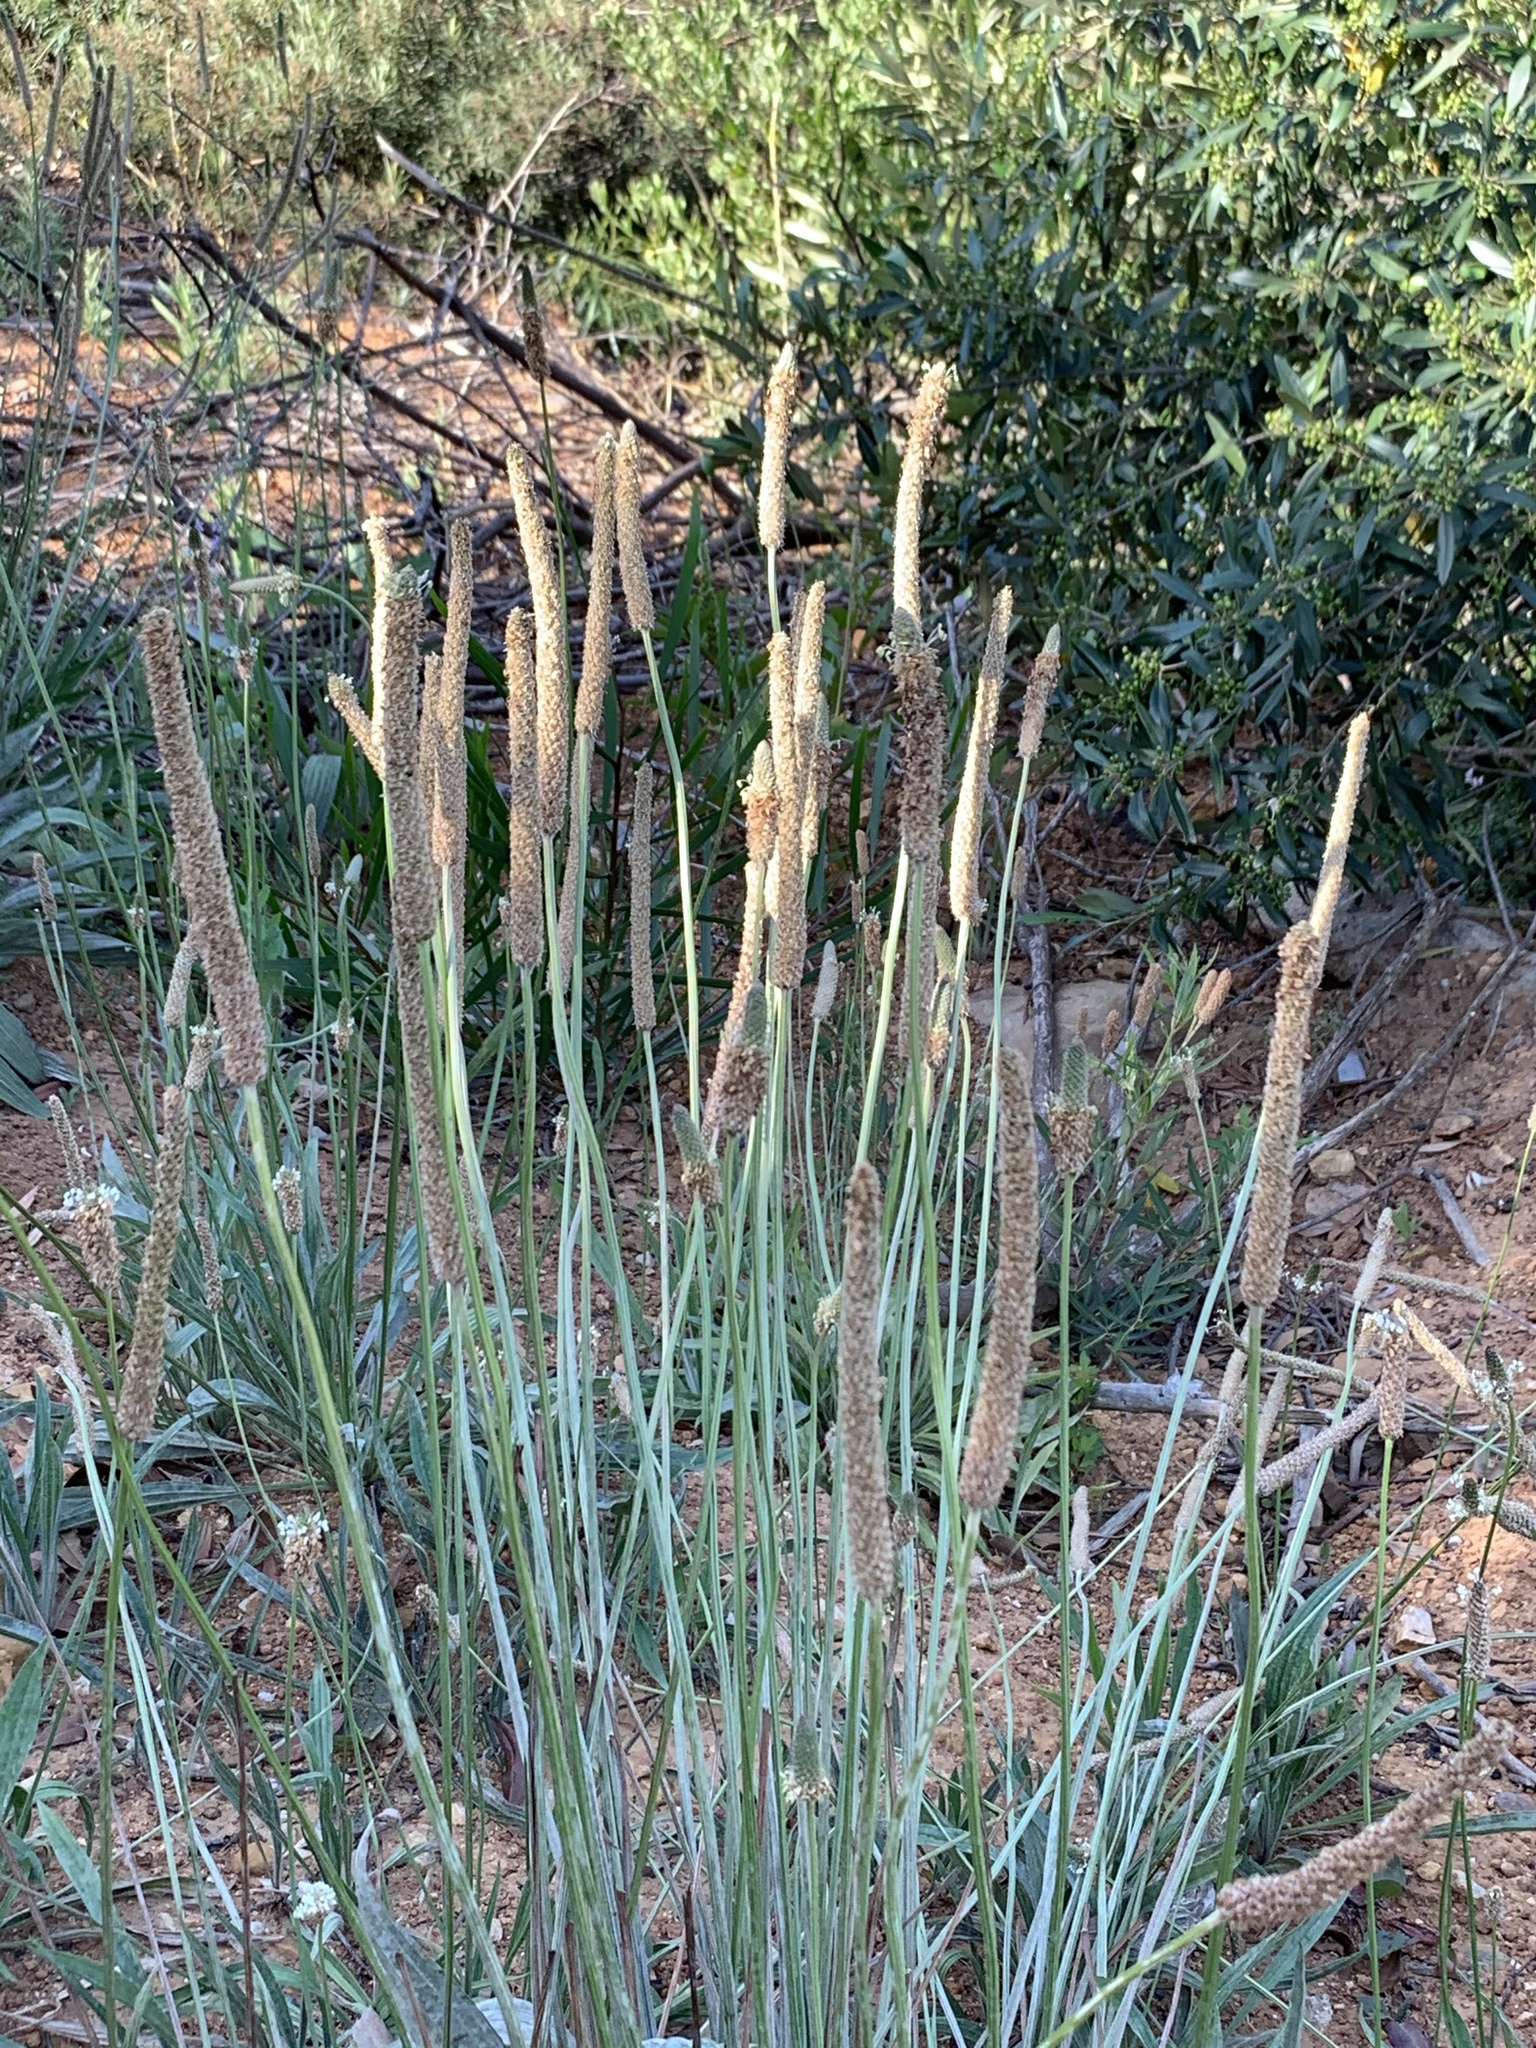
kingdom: Plantae
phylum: Tracheophyta
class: Magnoliopsida
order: Lamiales
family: Plantaginaceae
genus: Plantago
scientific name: Plantago lanceolata
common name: Ribwort plantain
